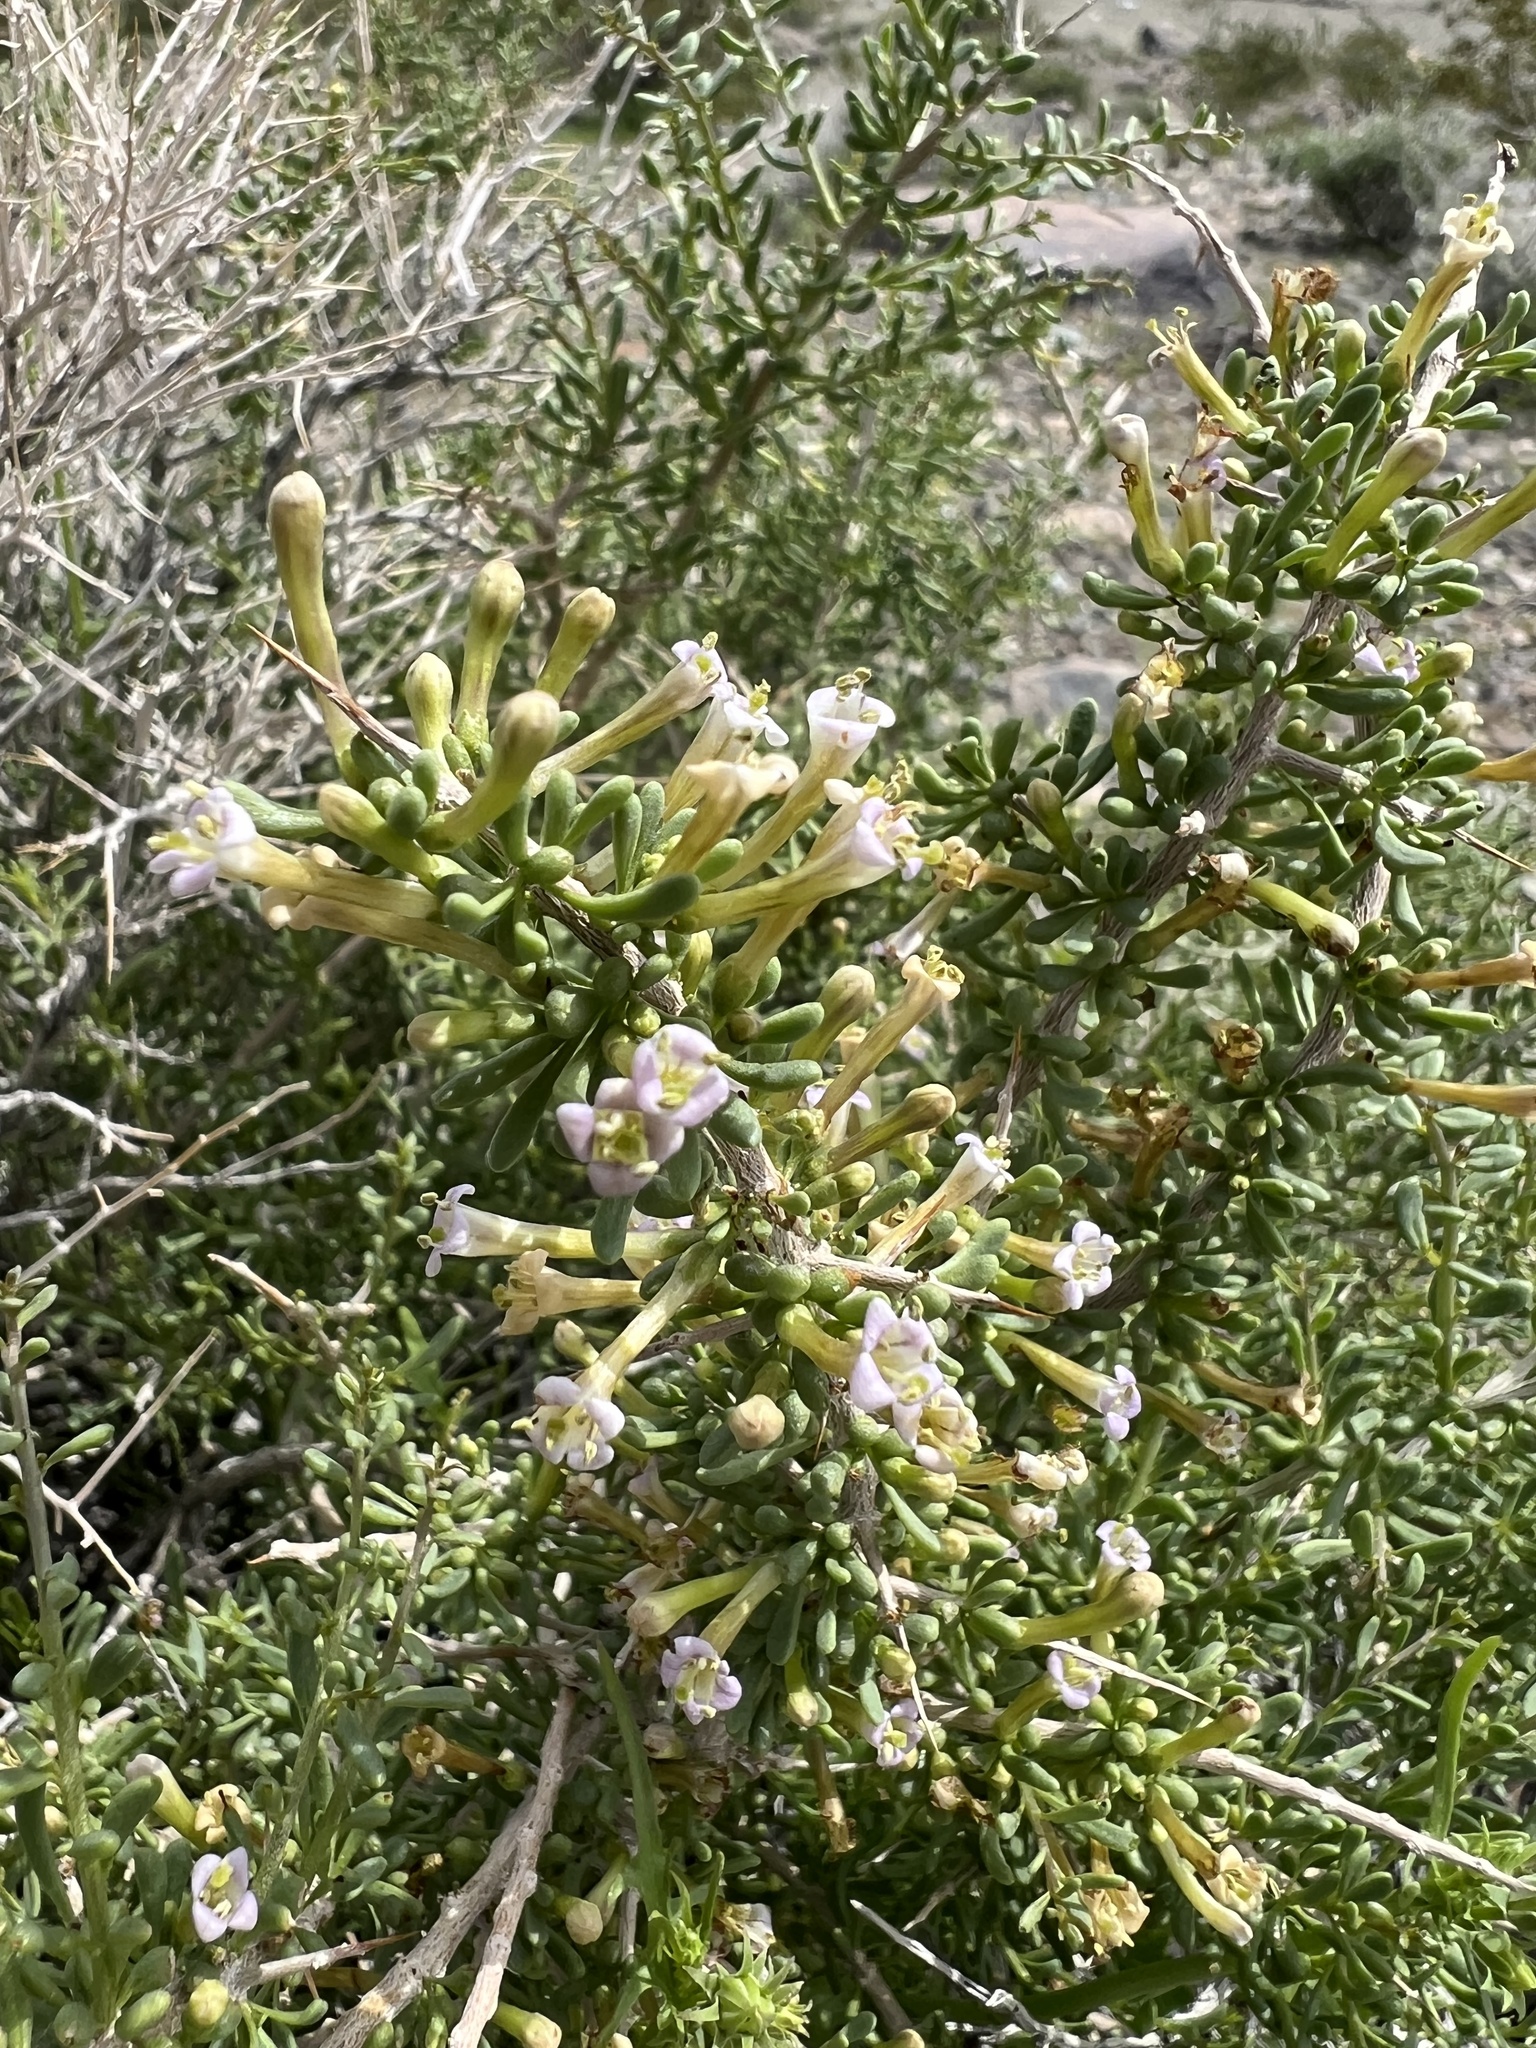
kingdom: Plantae
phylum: Tracheophyta
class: Magnoliopsida
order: Solanales
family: Solanaceae
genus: Lycium
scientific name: Lycium andersonii
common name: Water-jacket
